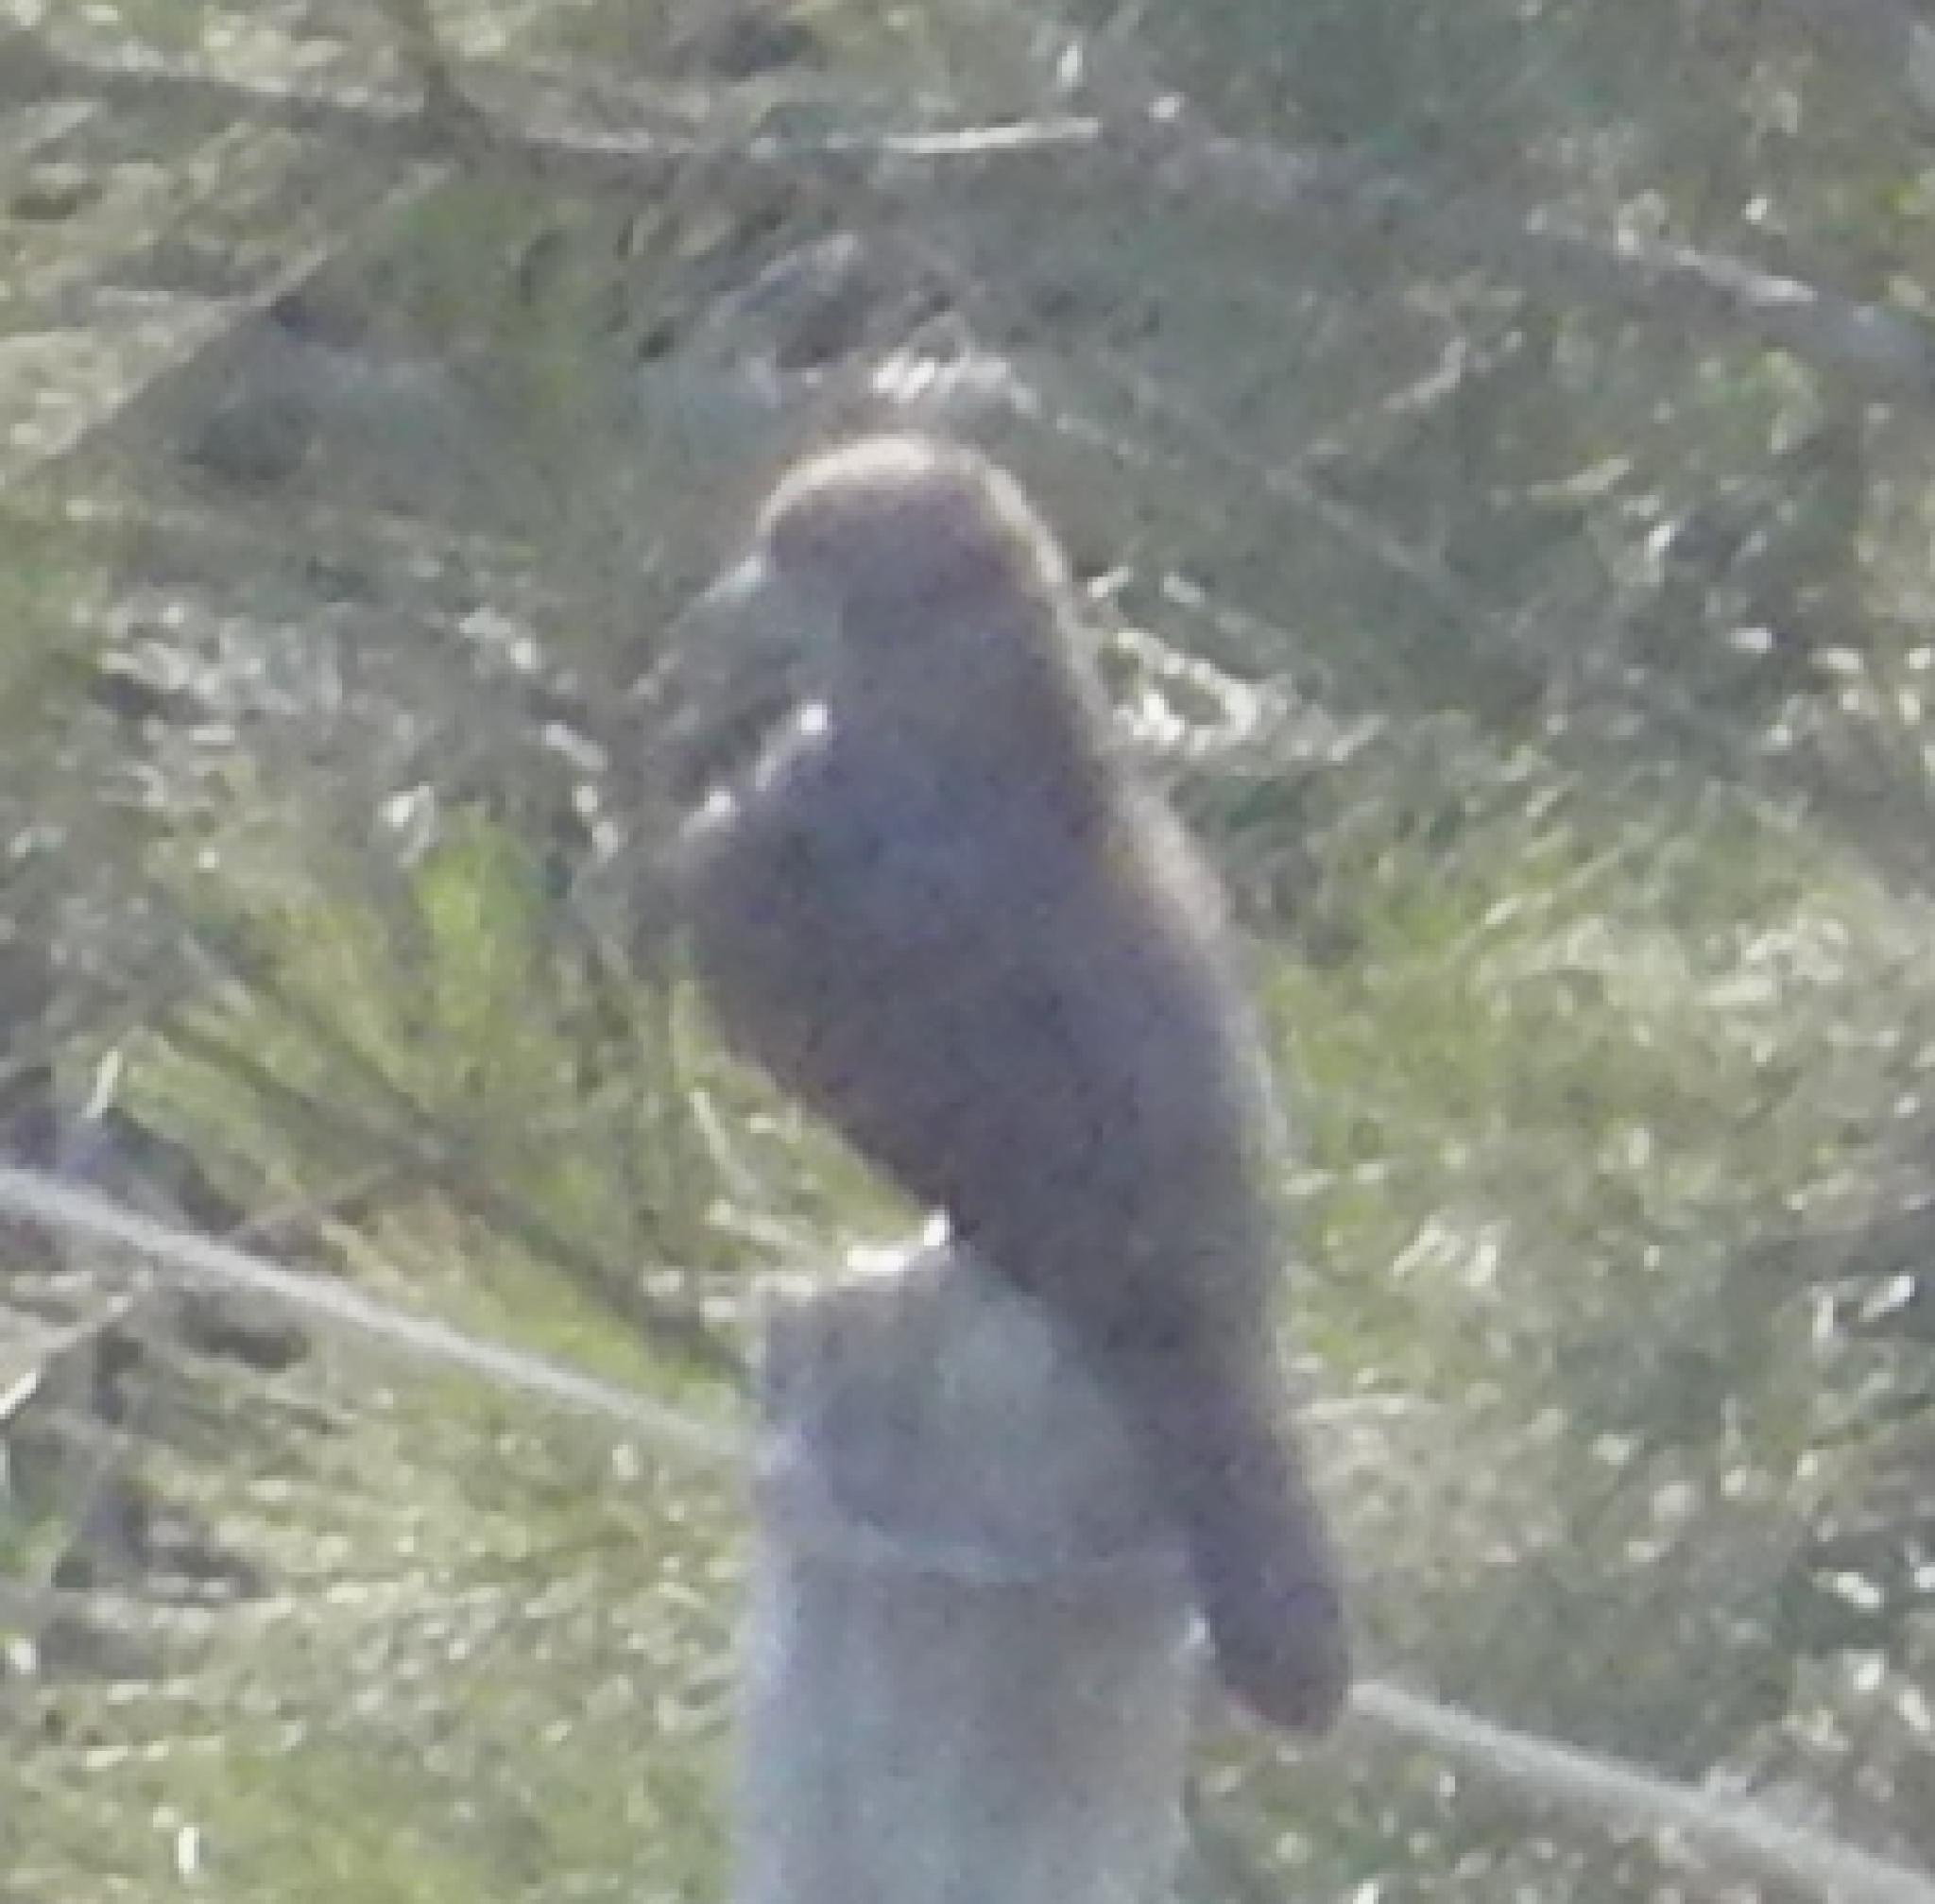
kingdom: Animalia
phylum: Chordata
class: Aves
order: Piciformes
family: Picidae
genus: Jynx
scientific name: Jynx ruficollis
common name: Red-throated wryneck
